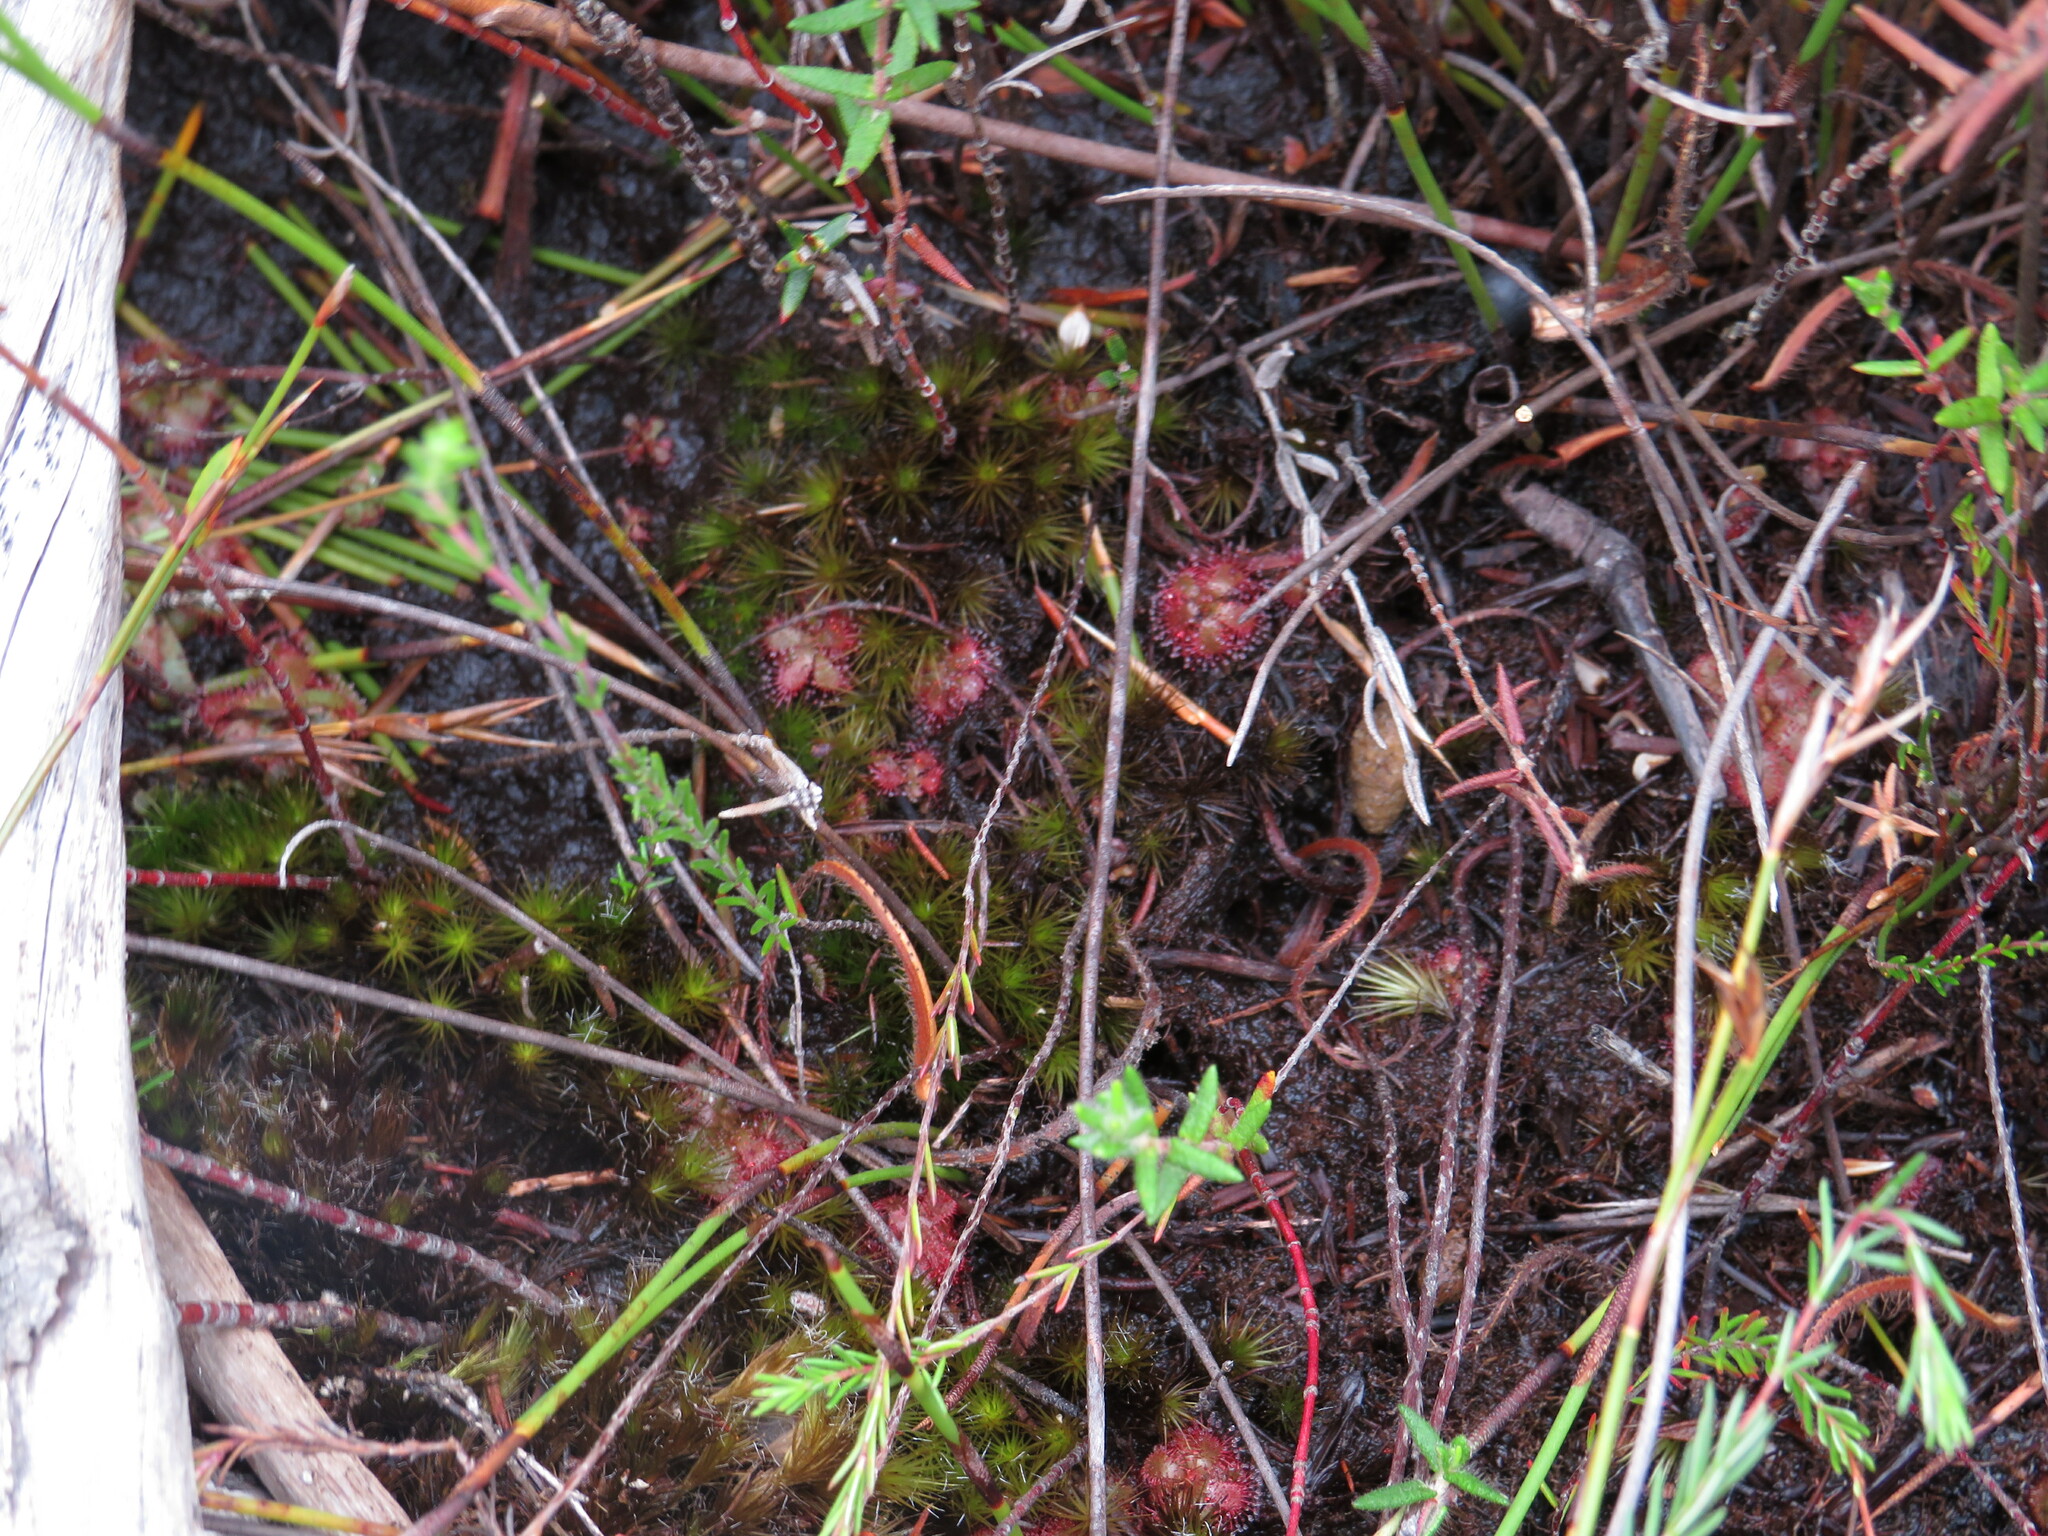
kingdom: Plantae
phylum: Tracheophyta
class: Magnoliopsida
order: Caryophyllales
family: Droseraceae
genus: Drosera
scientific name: Drosera cuneifolia
